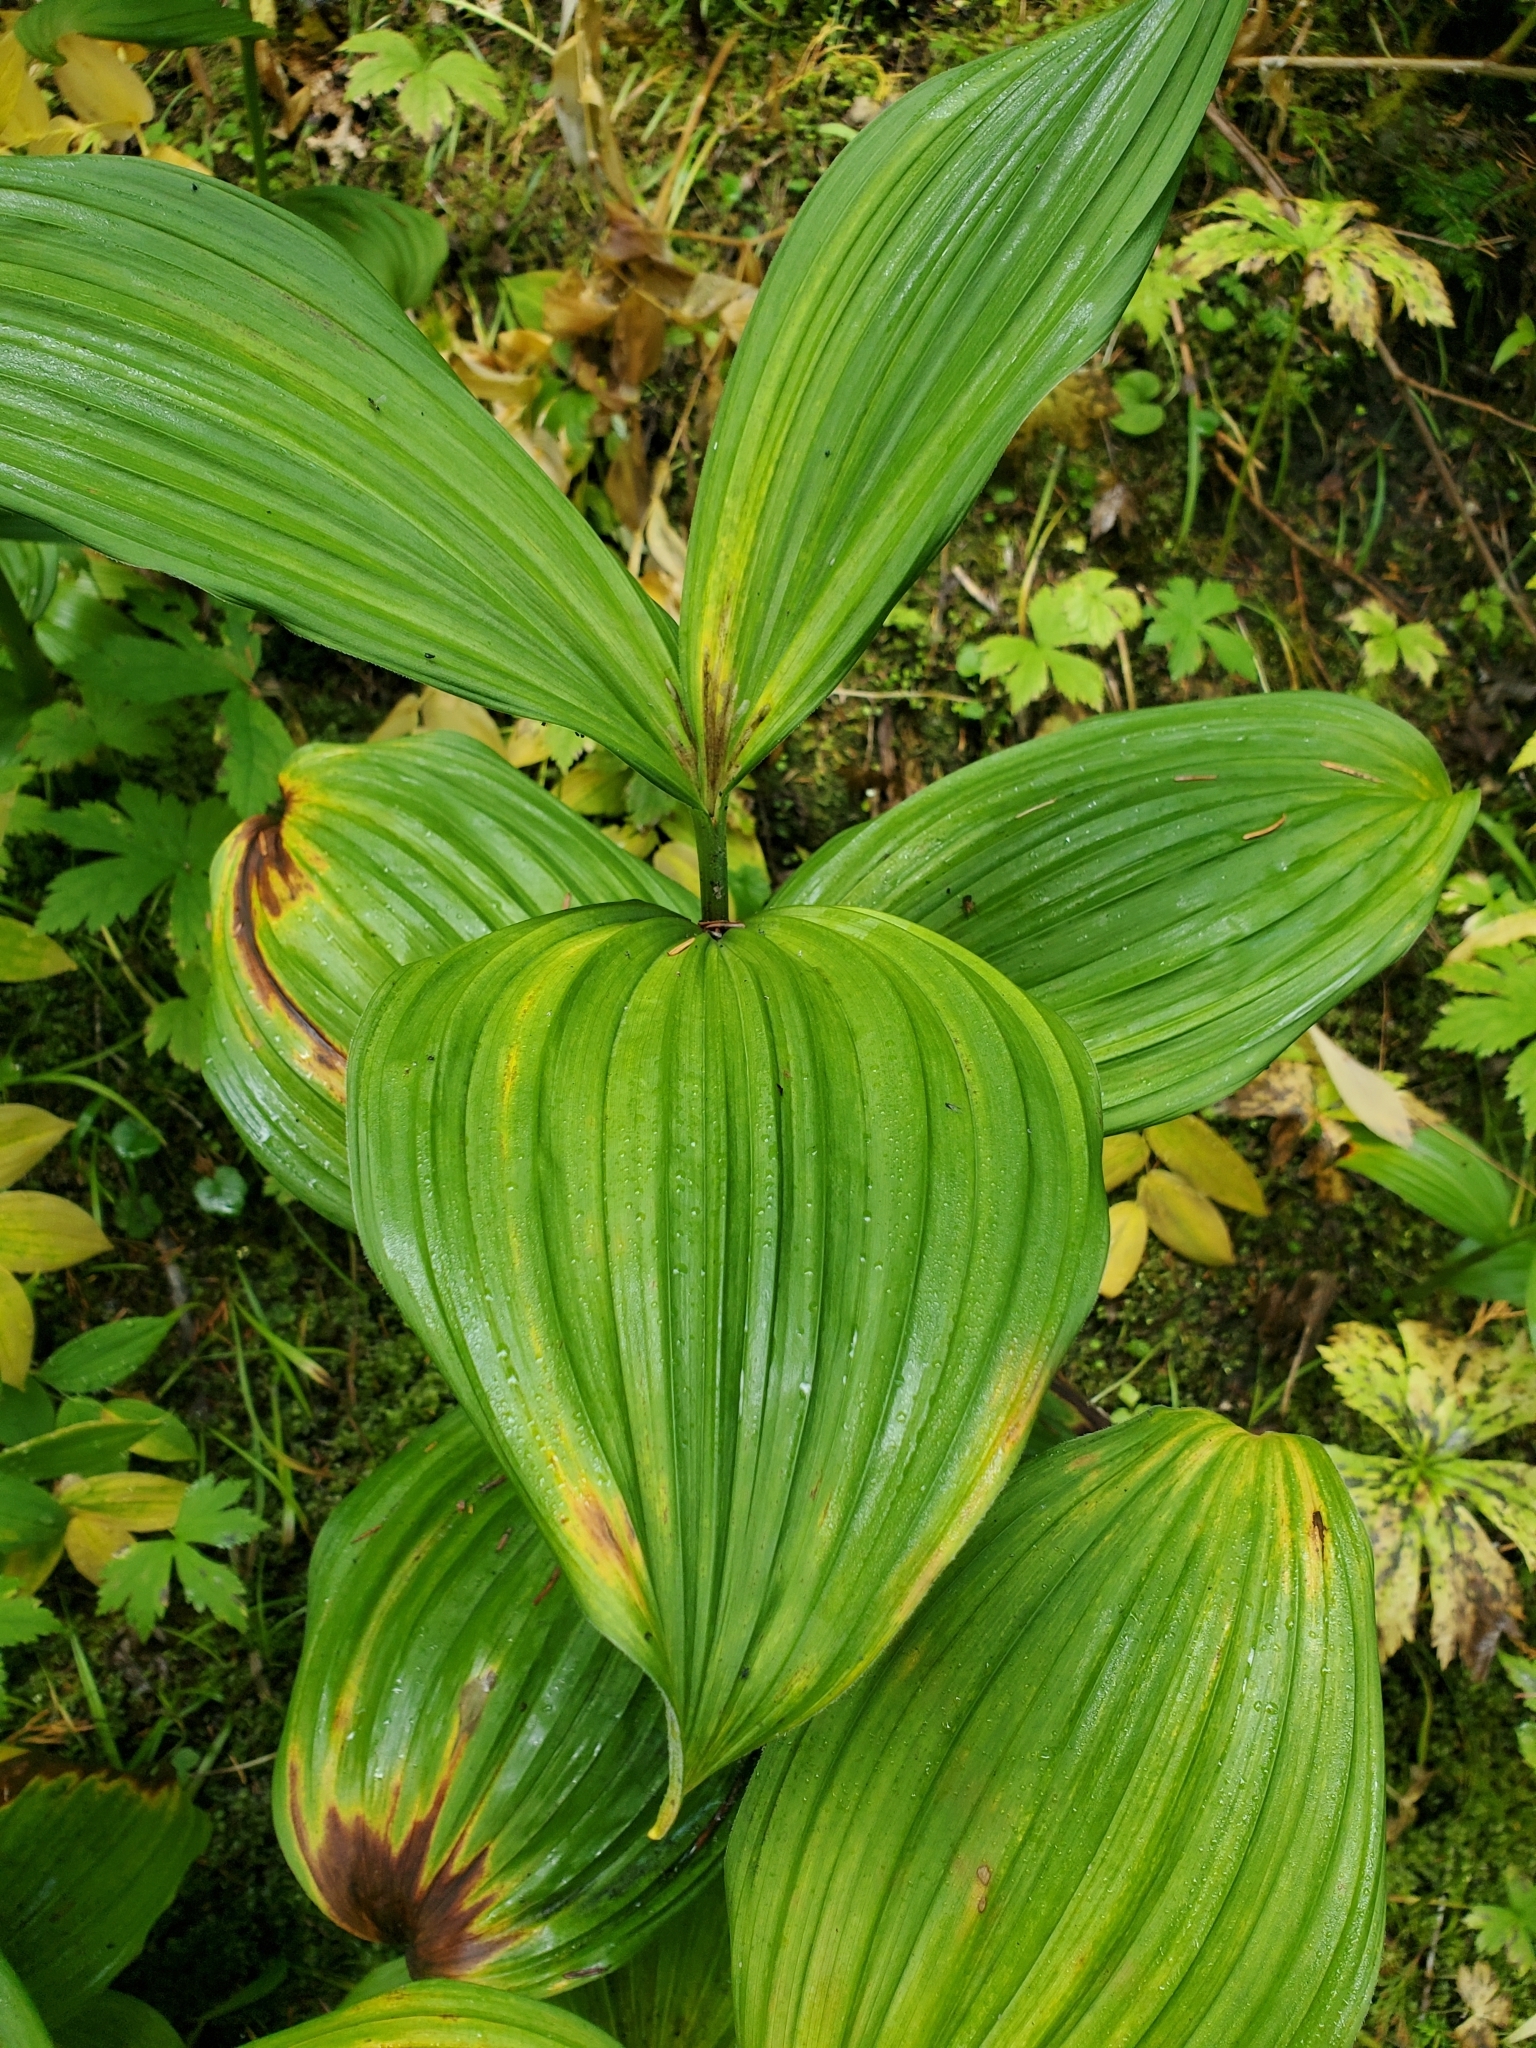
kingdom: Plantae
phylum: Tracheophyta
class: Liliopsida
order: Liliales
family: Melanthiaceae
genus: Veratrum
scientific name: Veratrum viride
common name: American false hellebore
